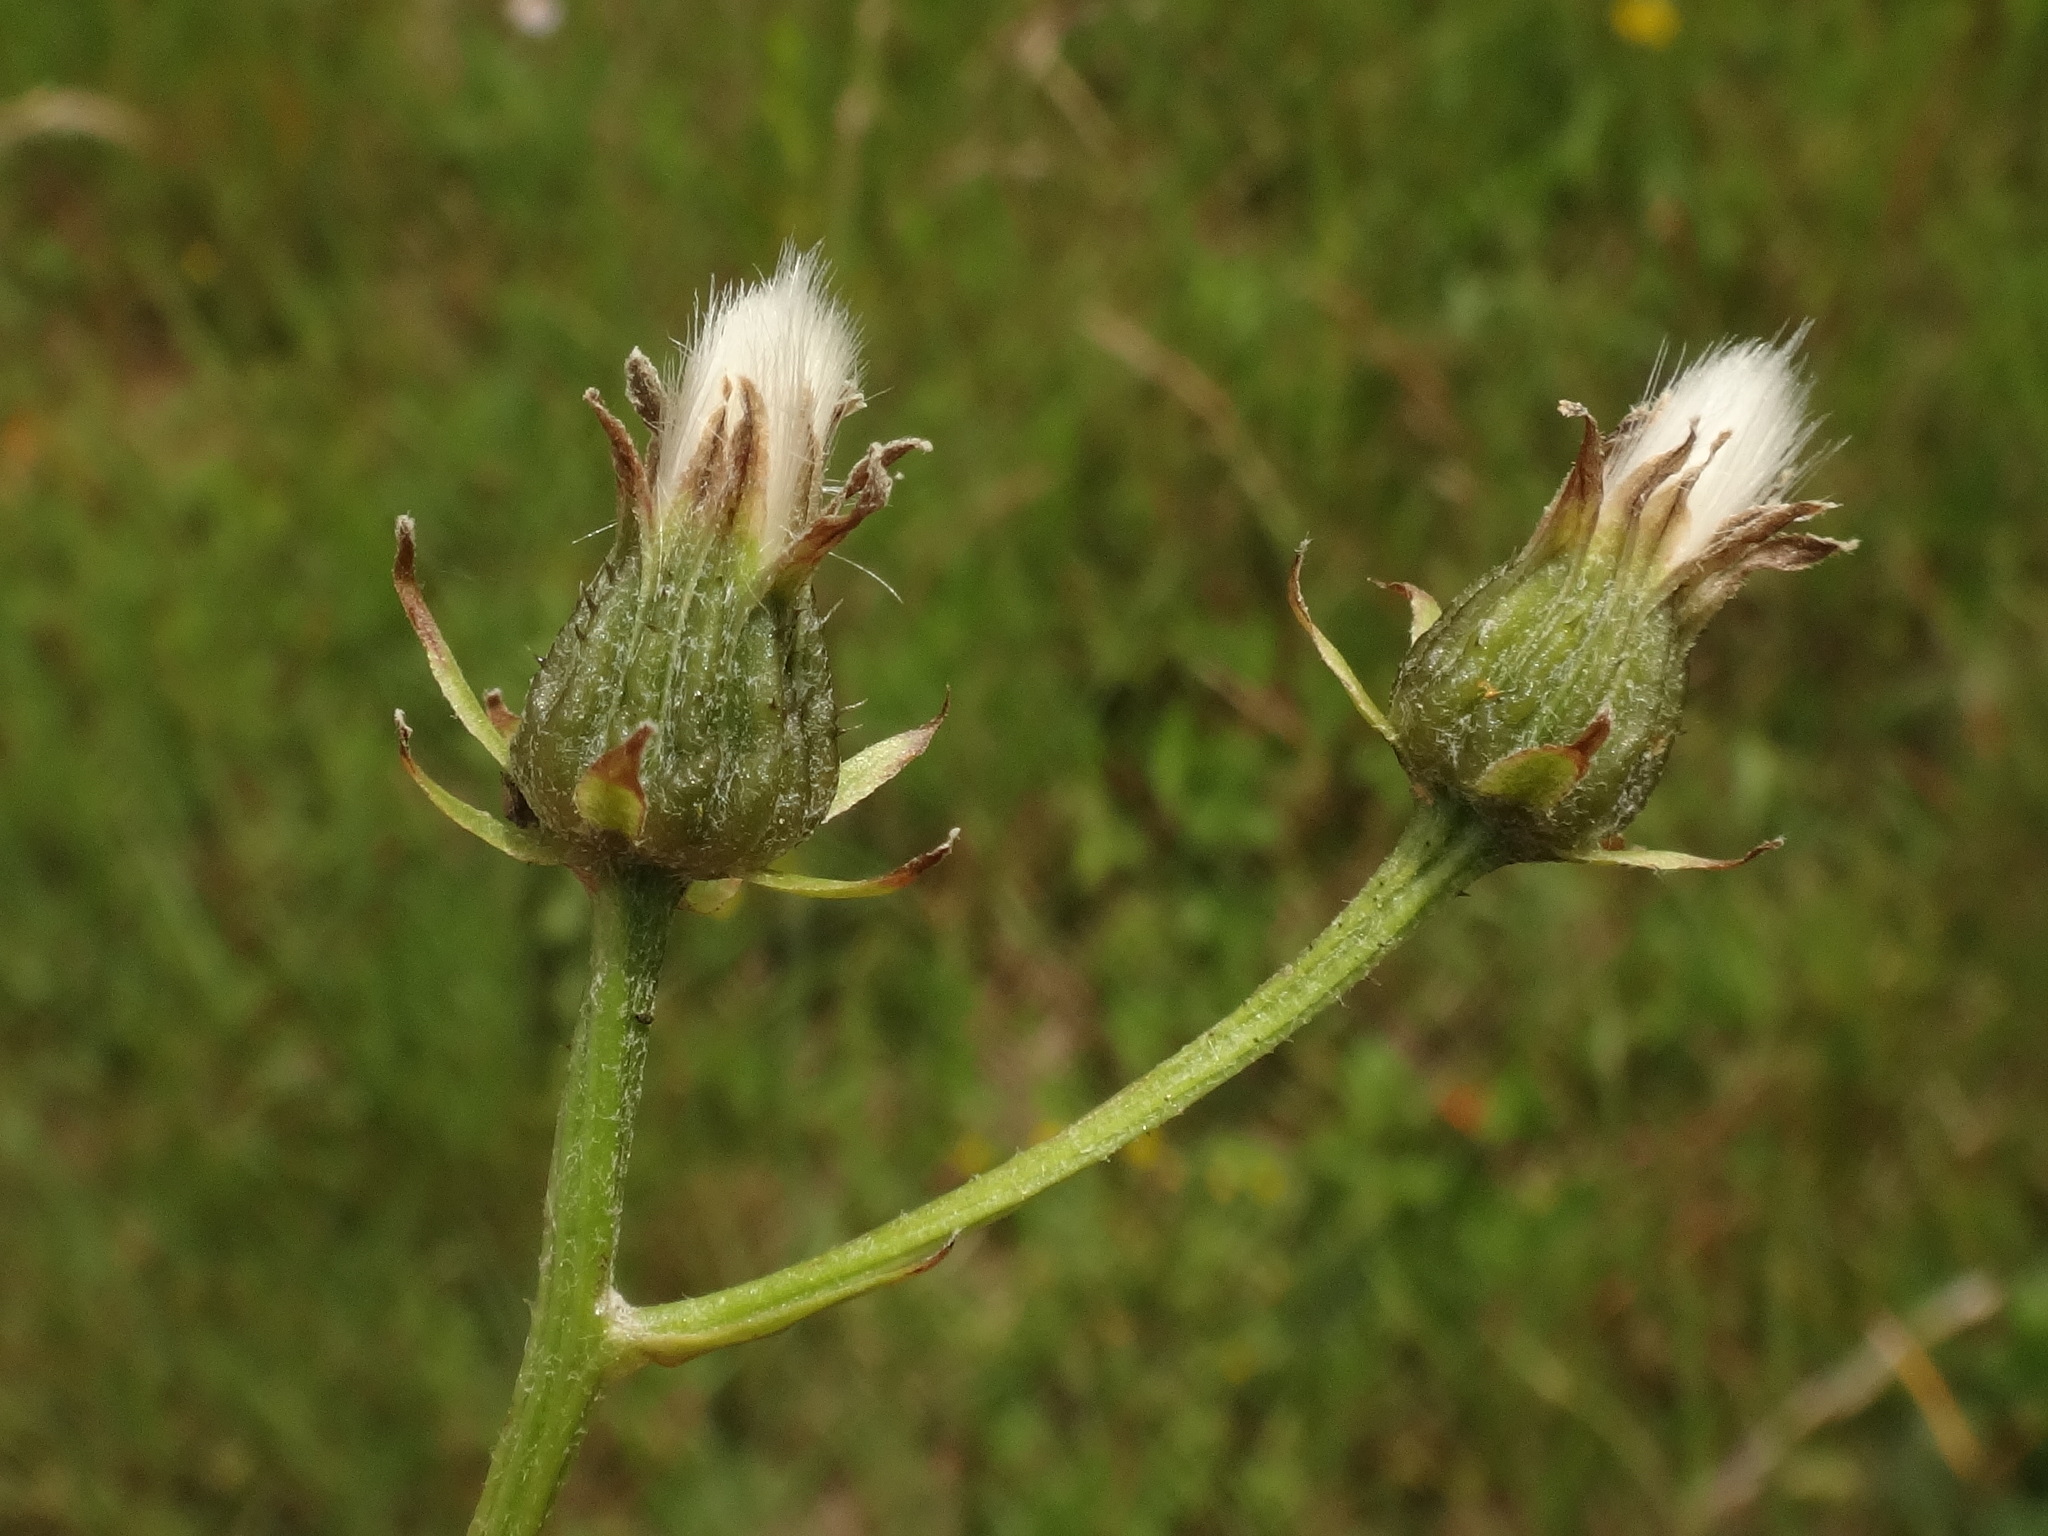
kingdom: Plantae
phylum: Tracheophyta
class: Magnoliopsida
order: Asterales
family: Asteraceae
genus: Crepis
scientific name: Crepis biennis
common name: Rough hawk's-beard
